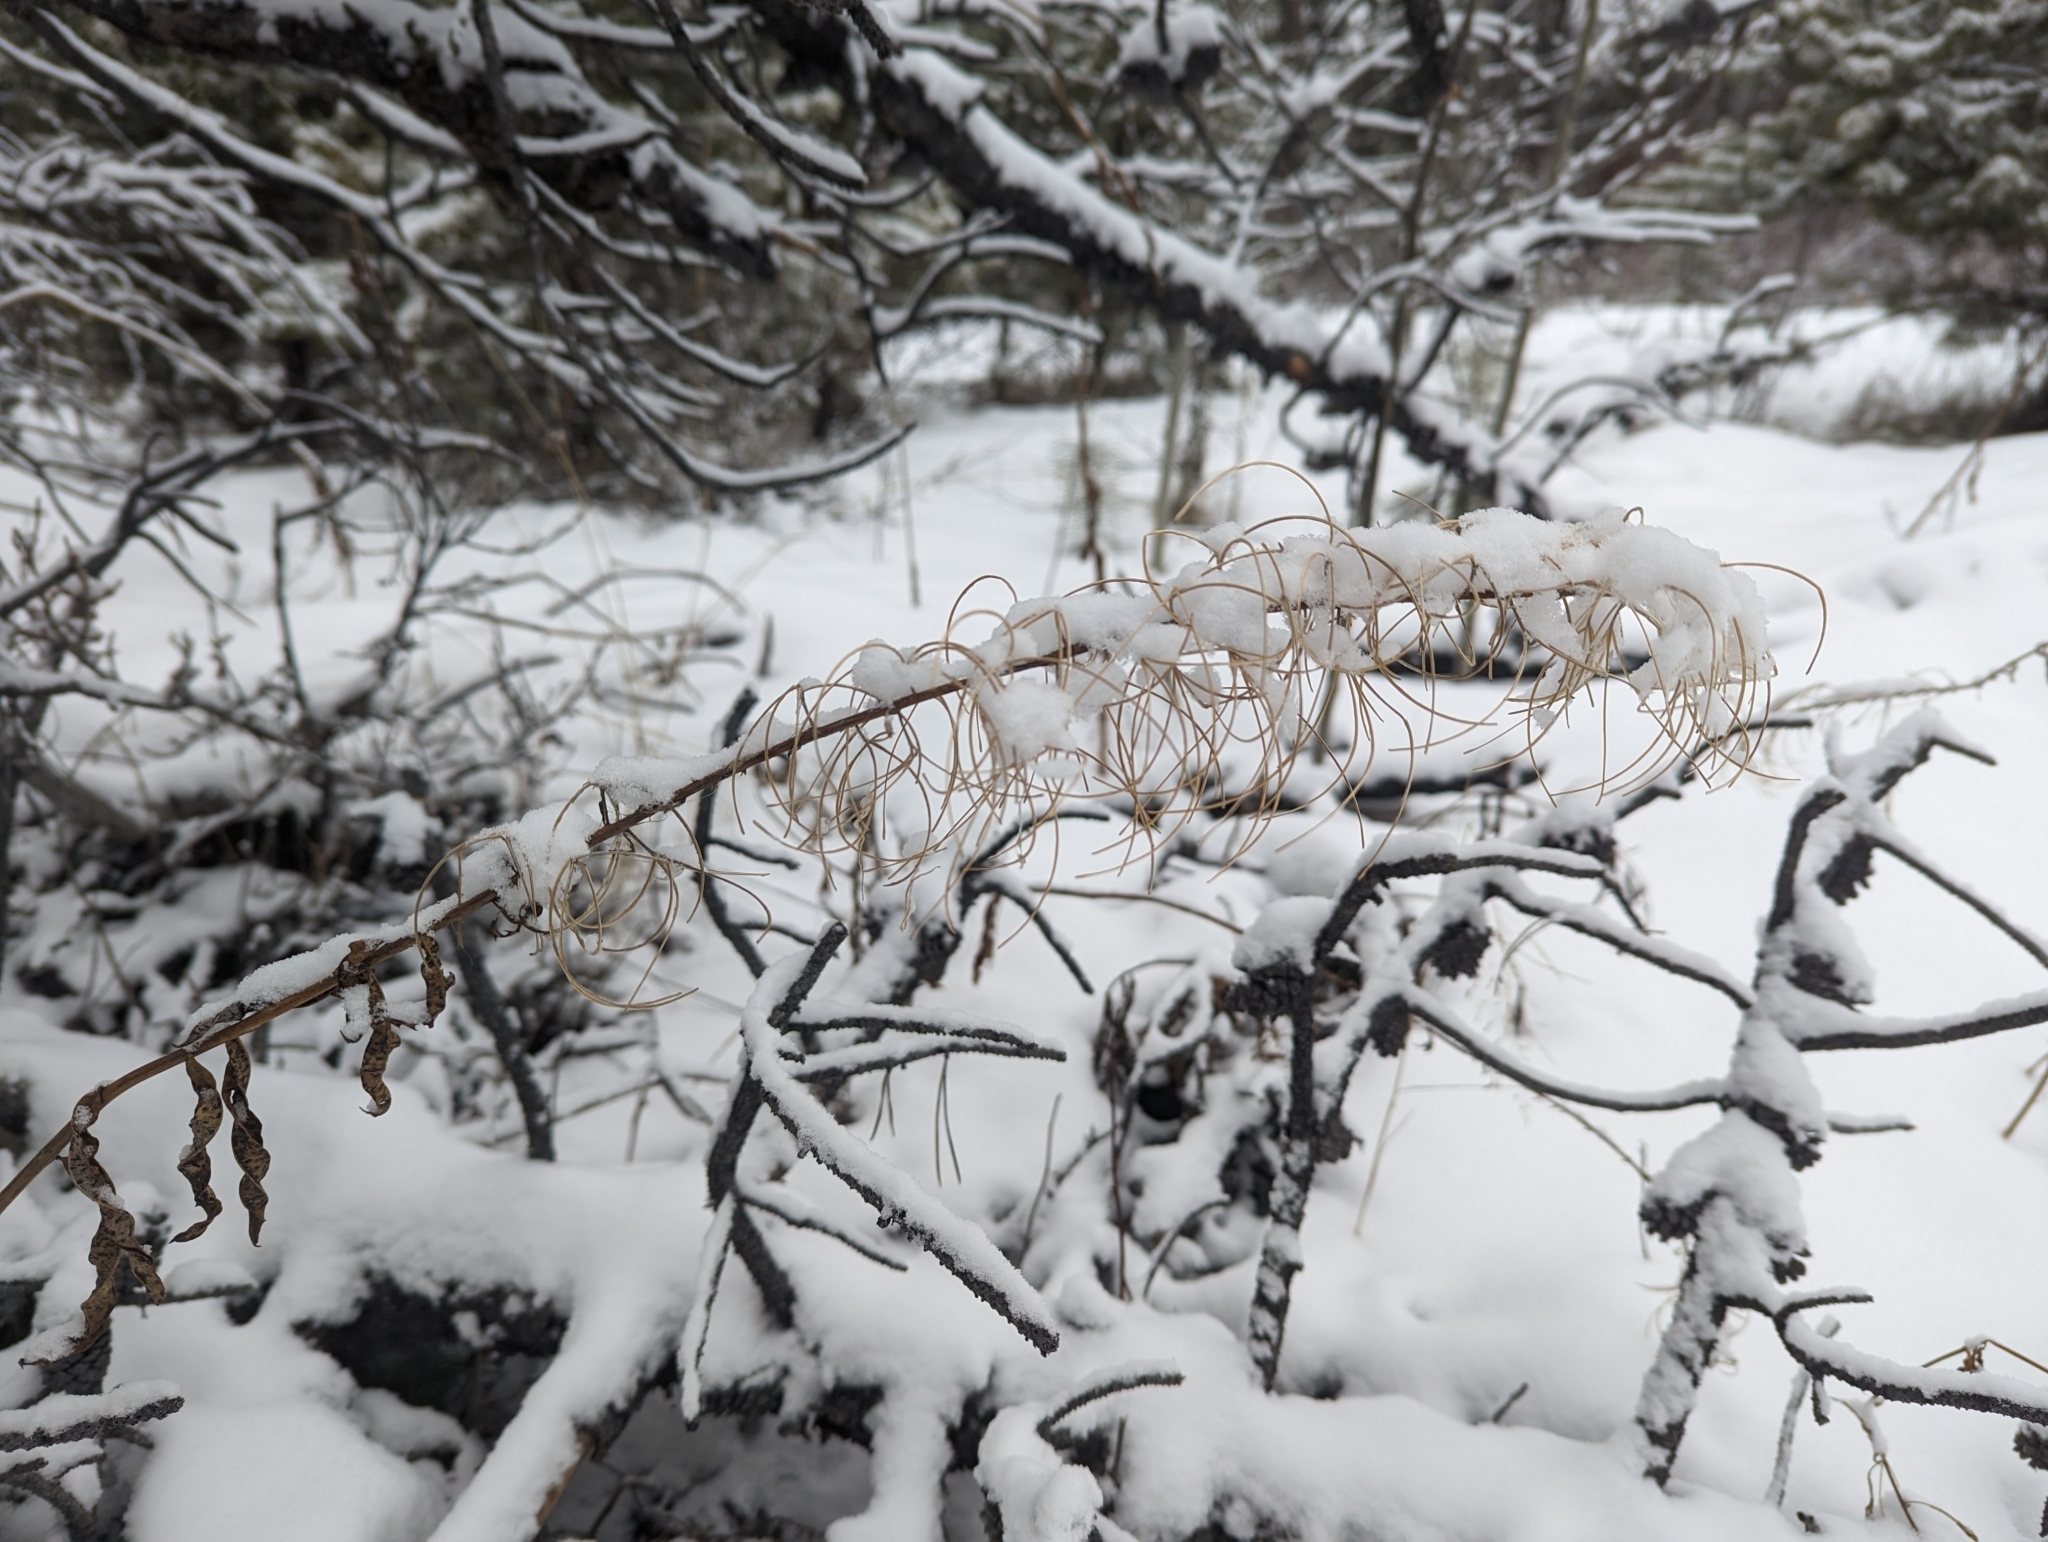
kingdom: Plantae
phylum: Tracheophyta
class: Magnoliopsida
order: Myrtales
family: Onagraceae
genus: Chamaenerion
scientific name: Chamaenerion angustifolium
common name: Fireweed
